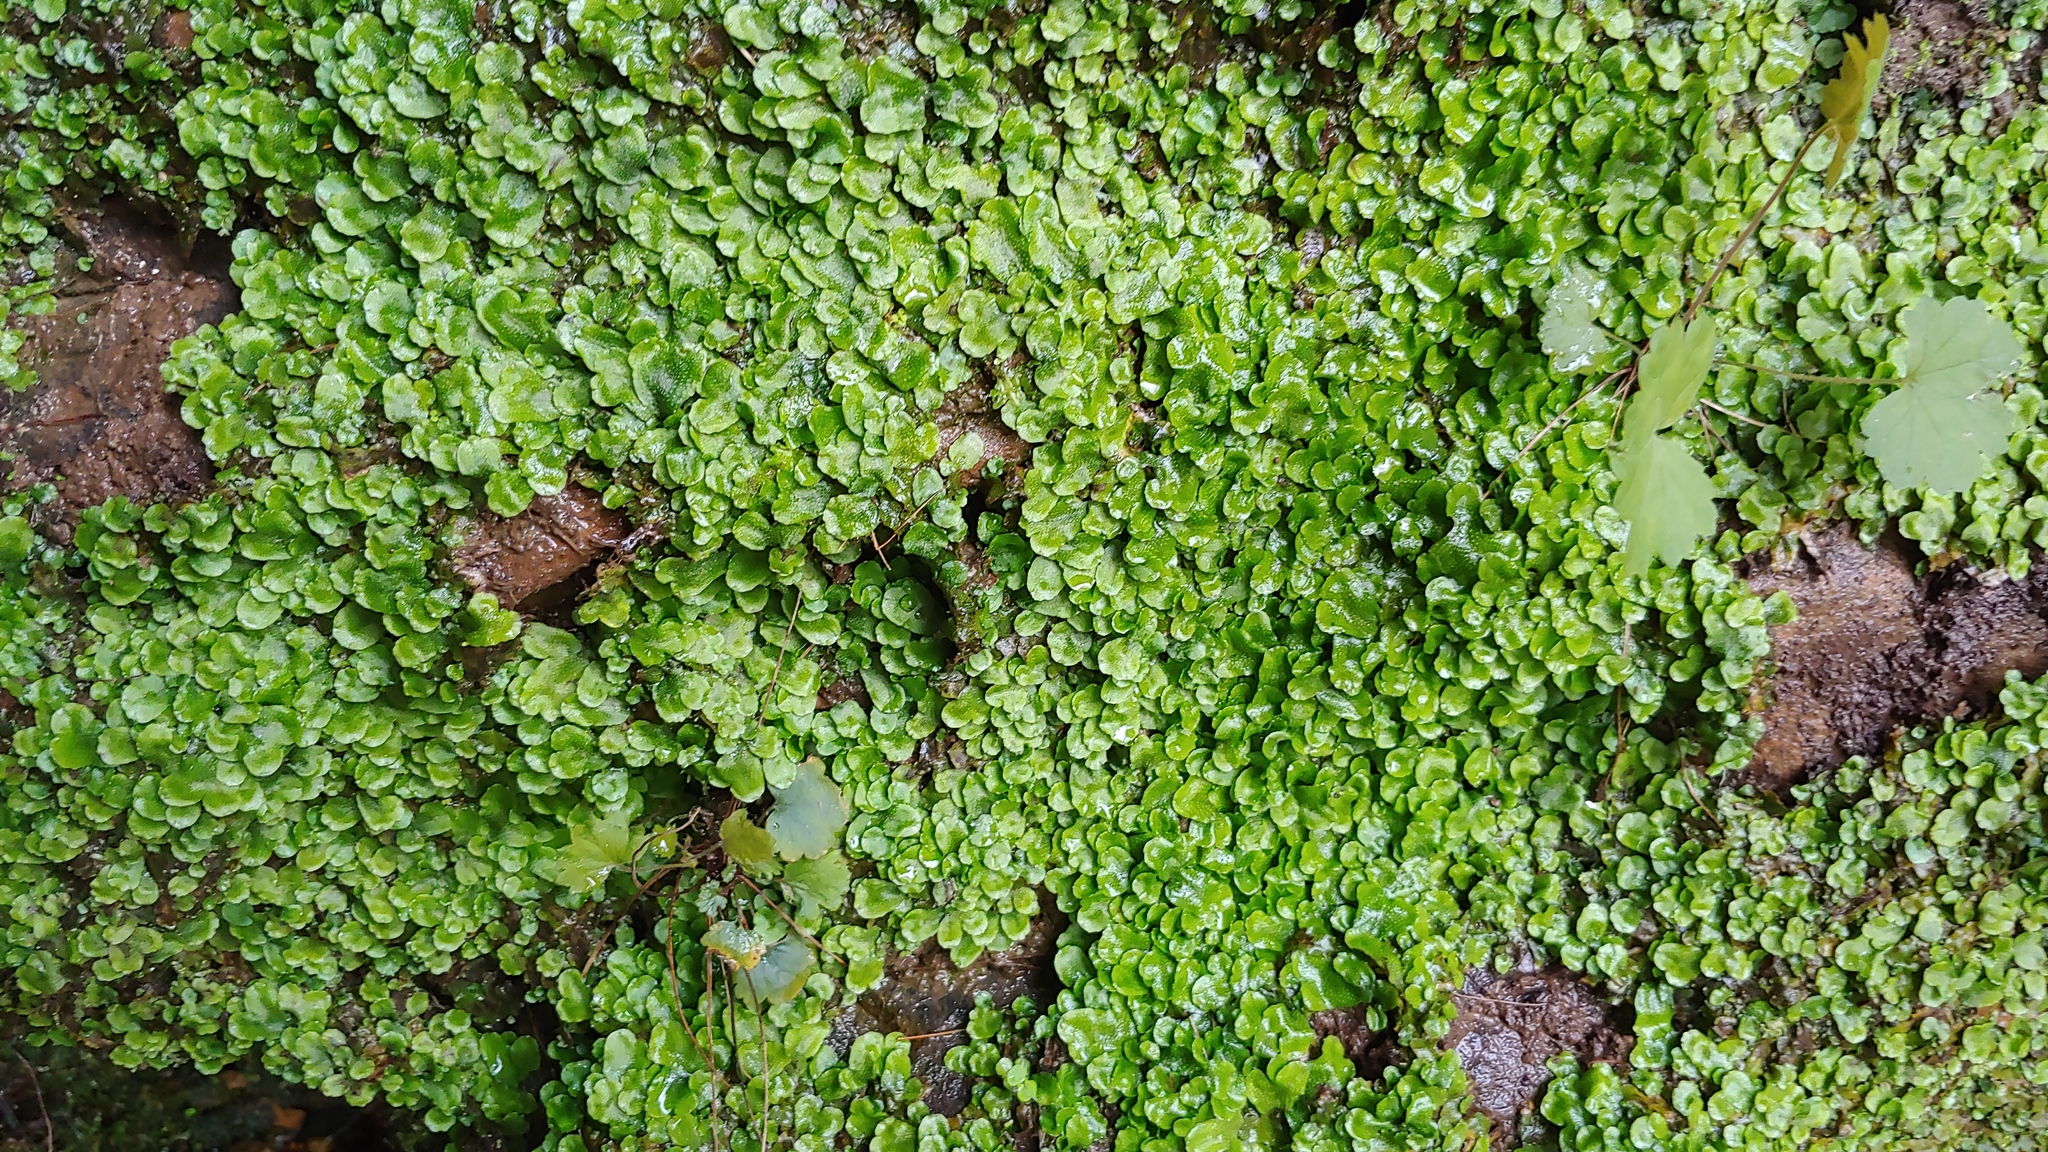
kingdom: Plantae
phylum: Marchantiophyta
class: Jungermanniopsida
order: Pelliales
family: Pelliaceae
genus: Pellia
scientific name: Pellia epiphylla
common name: Common pellia
